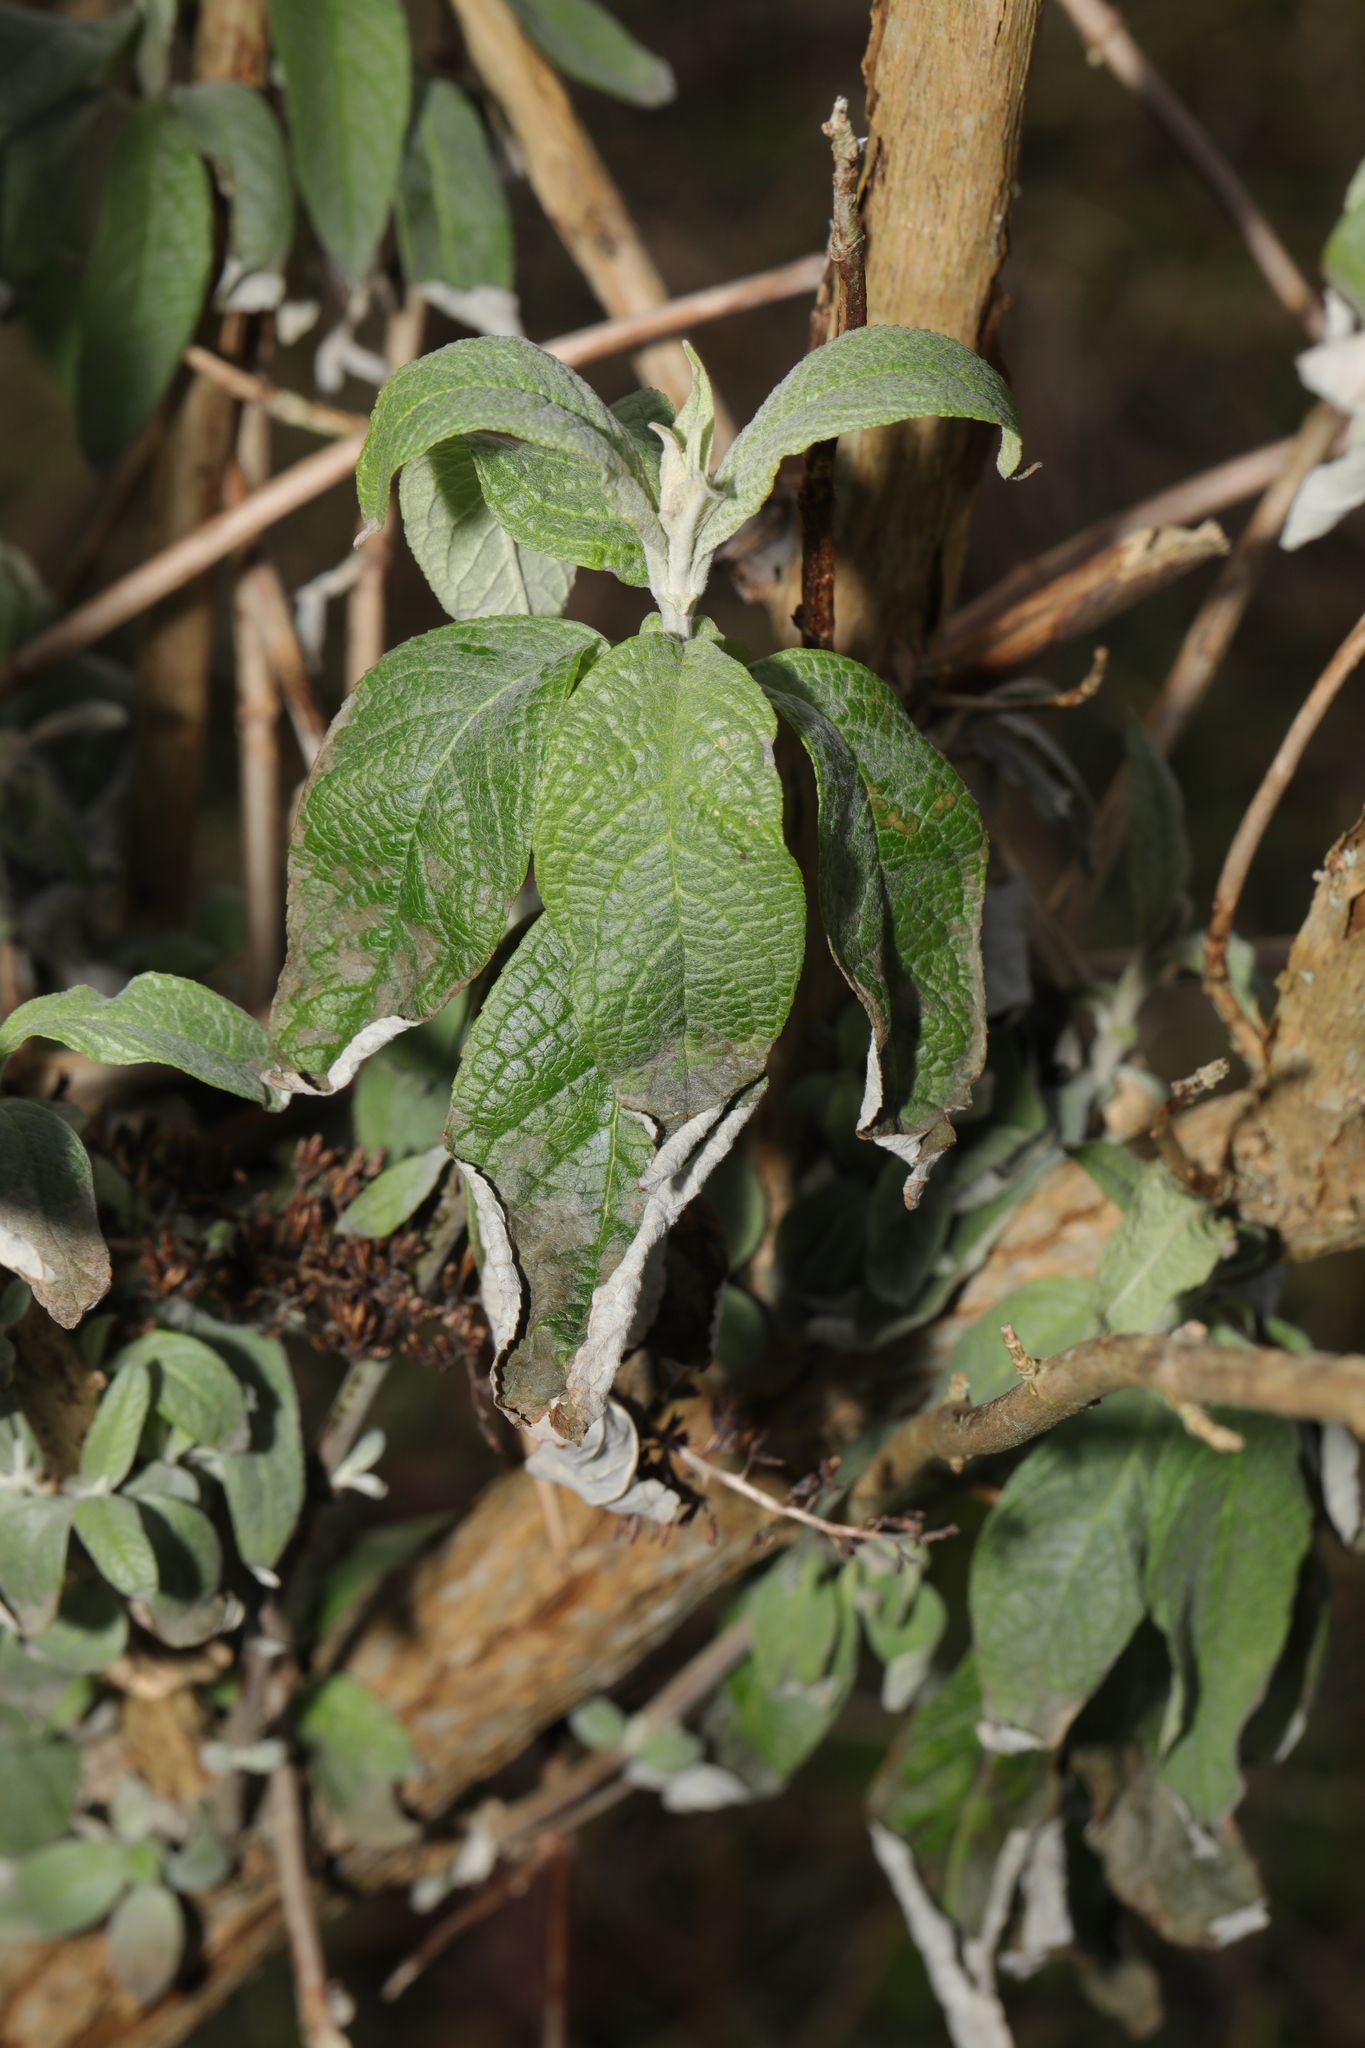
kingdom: Plantae
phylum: Tracheophyta
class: Magnoliopsida
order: Lamiales
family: Scrophulariaceae
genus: Buddleja
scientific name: Buddleja davidii
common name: Butterfly-bush
